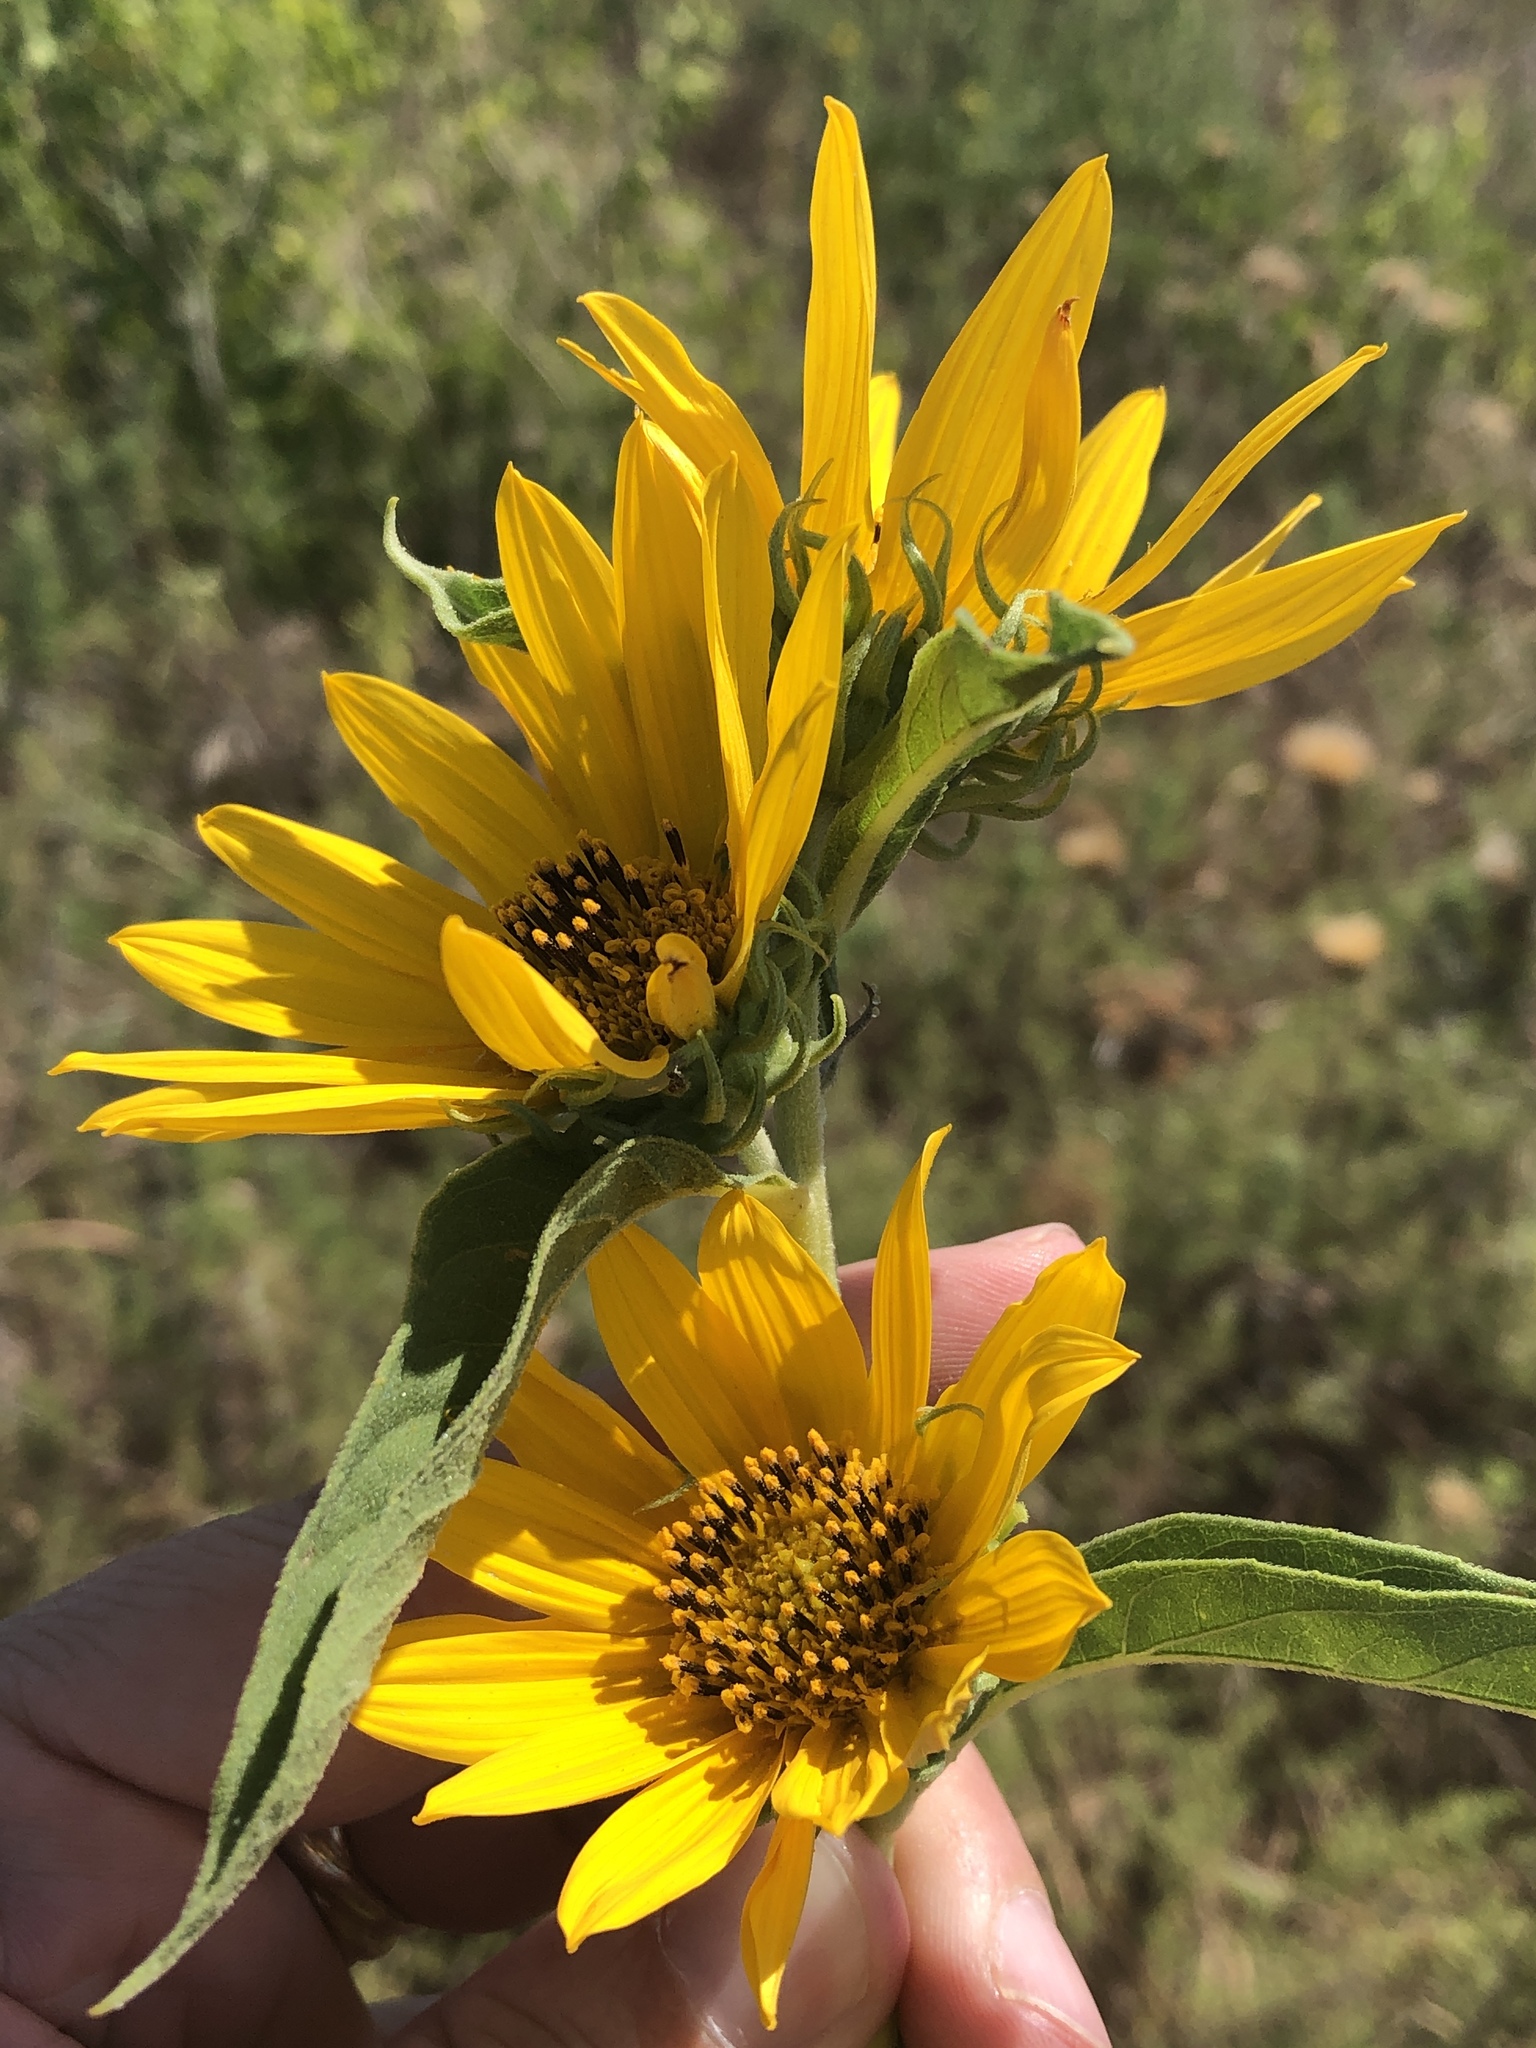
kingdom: Plantae
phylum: Tracheophyta
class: Magnoliopsida
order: Asterales
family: Asteraceae
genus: Helianthus
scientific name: Helianthus maximiliani
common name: Maximilian's sunflower
